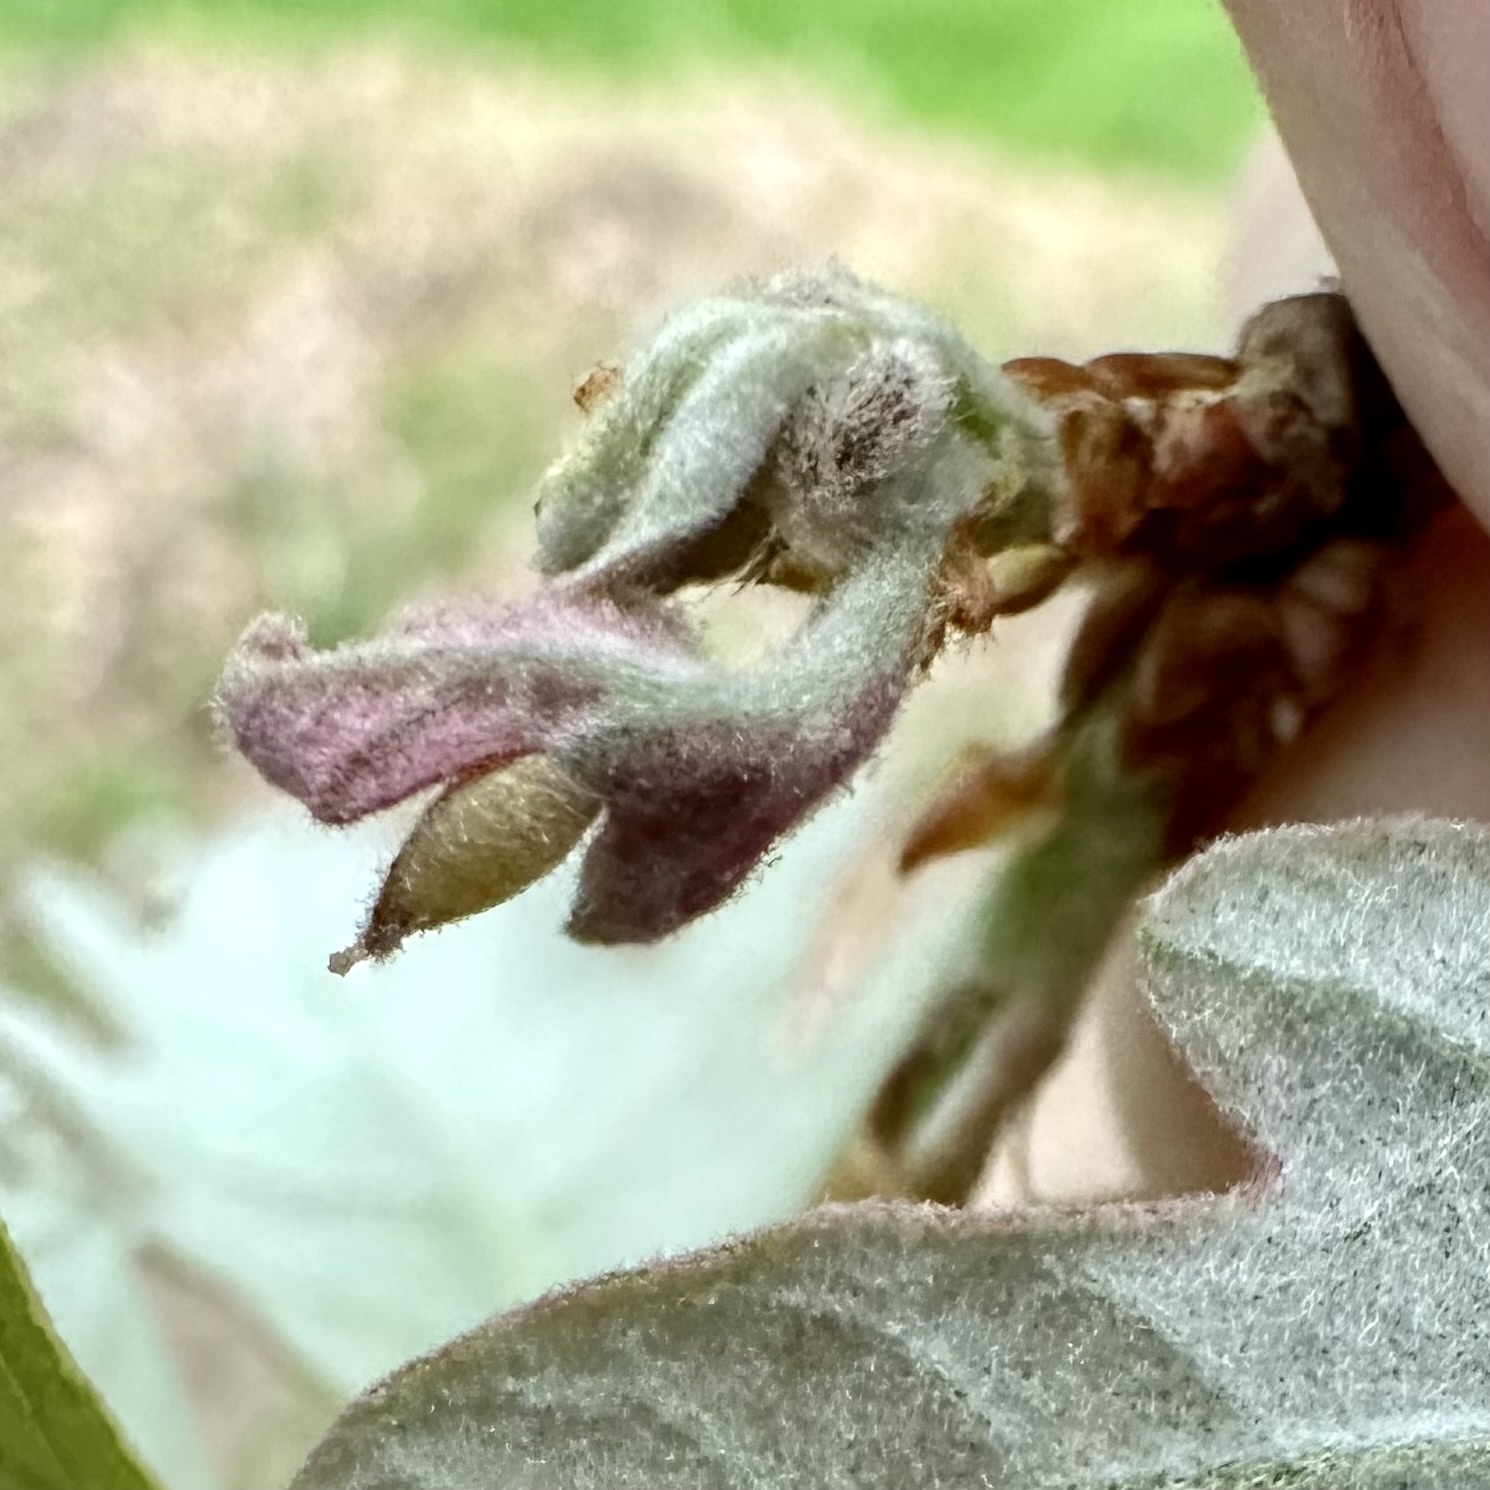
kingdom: Animalia
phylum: Arthropoda
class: Insecta
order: Hymenoptera
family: Cynipidae
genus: Phylloteras
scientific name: Phylloteras poculum
